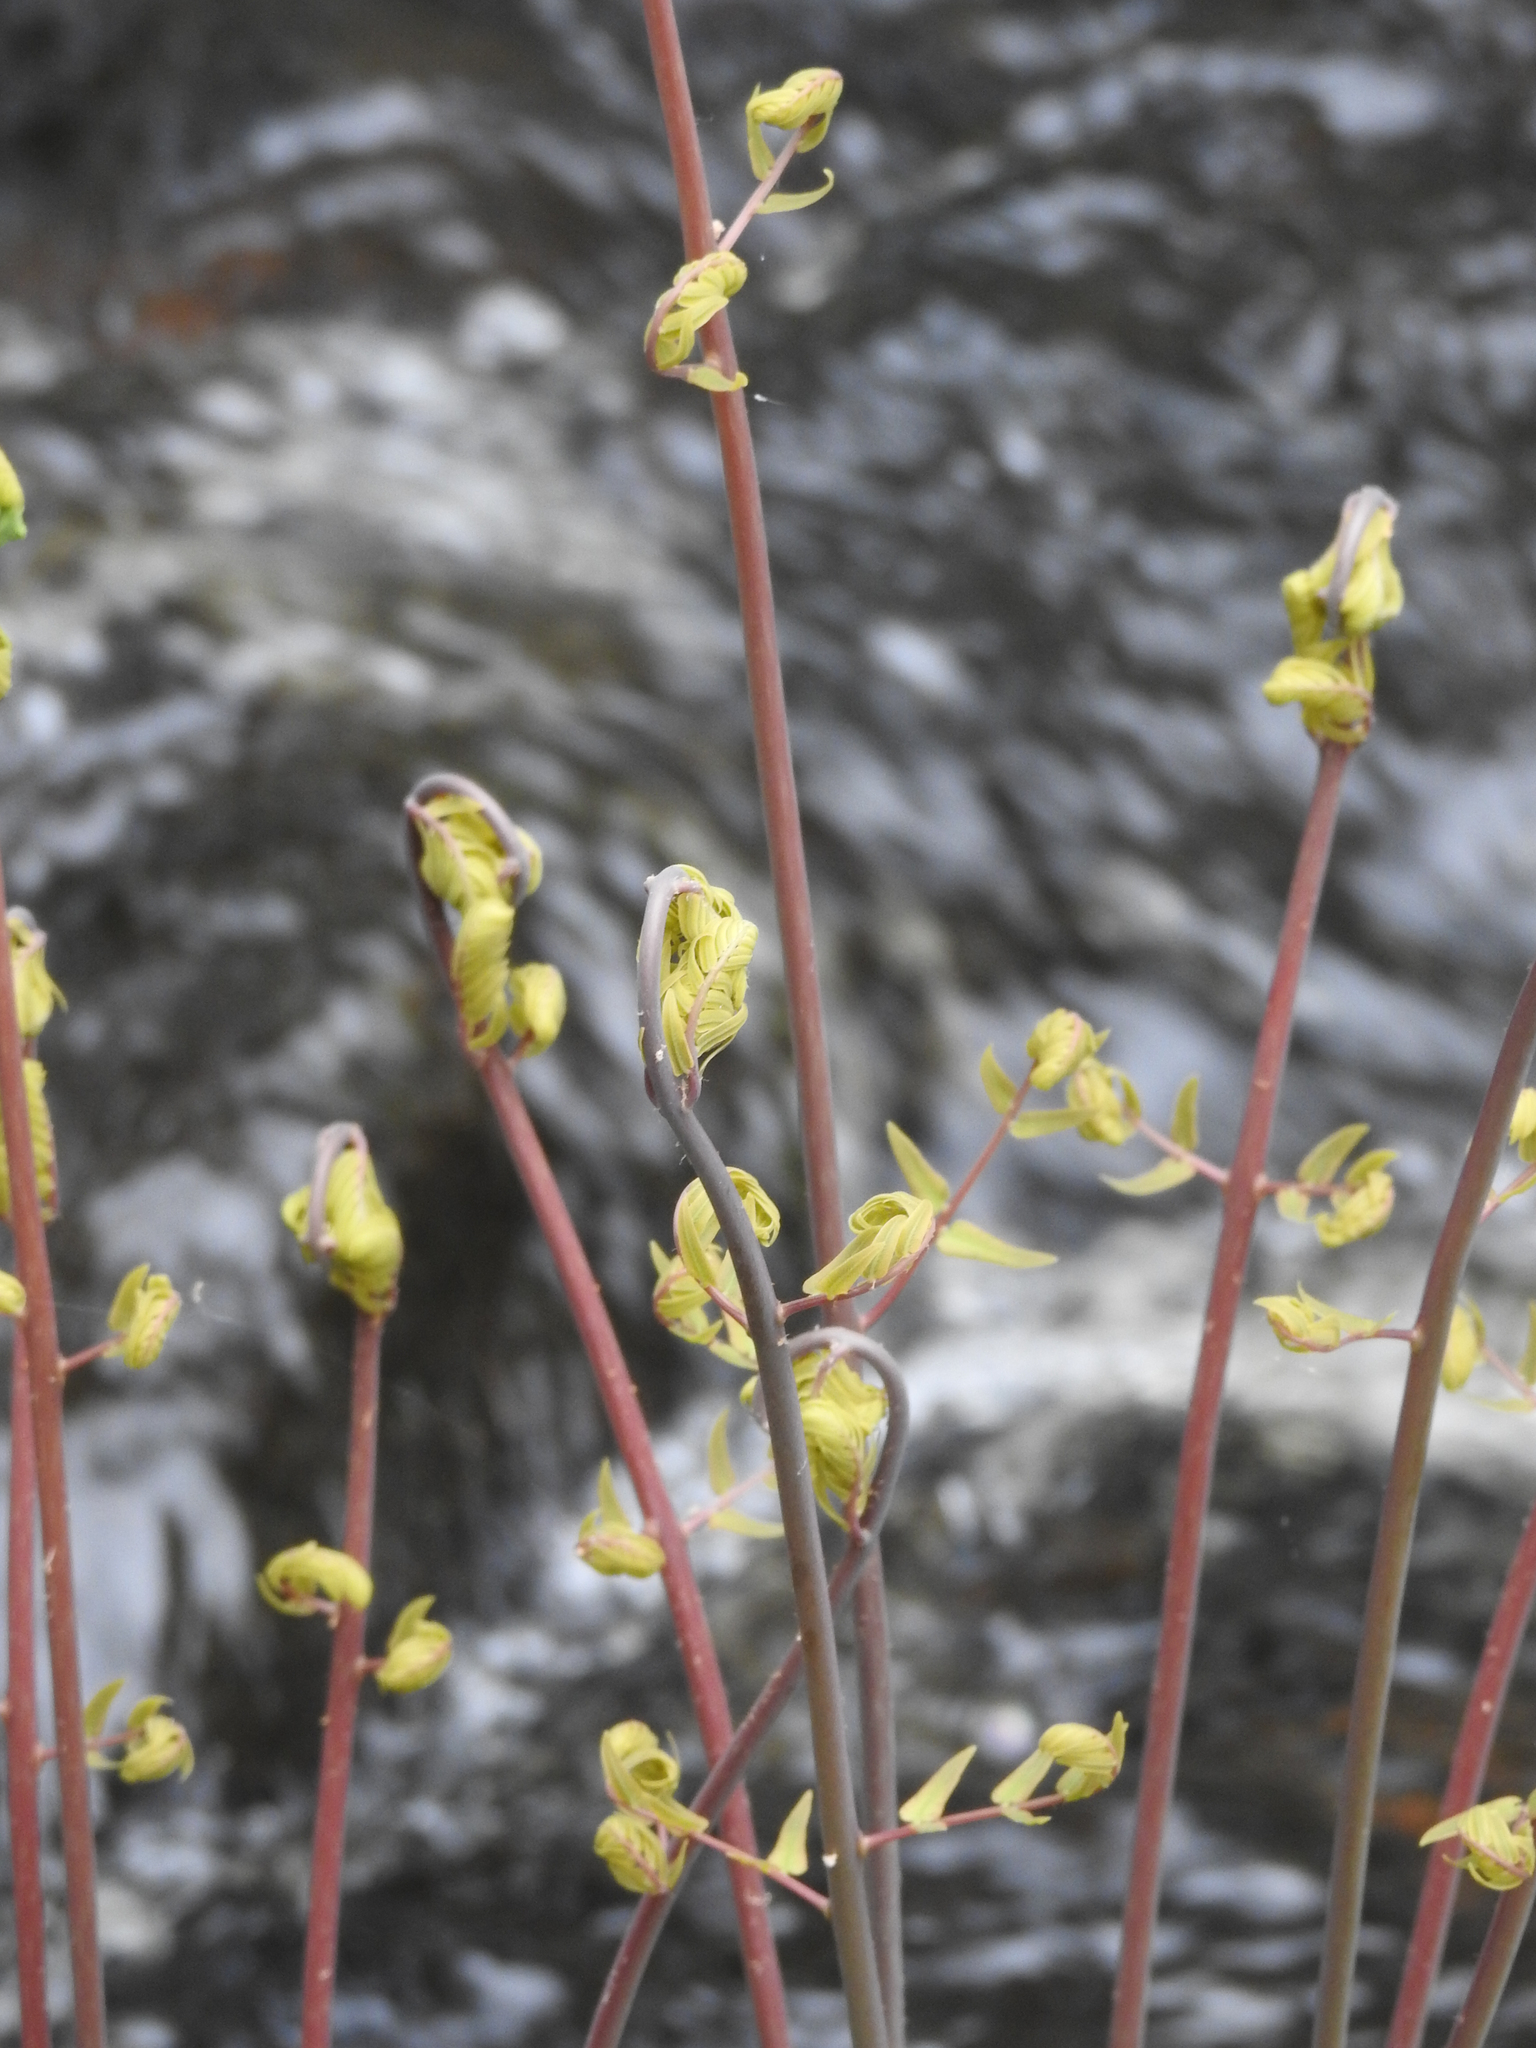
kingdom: Plantae
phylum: Tracheophyta
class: Polypodiopsida
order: Osmundales
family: Osmundaceae
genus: Osmunda
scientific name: Osmunda spectabilis
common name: American royal fern
